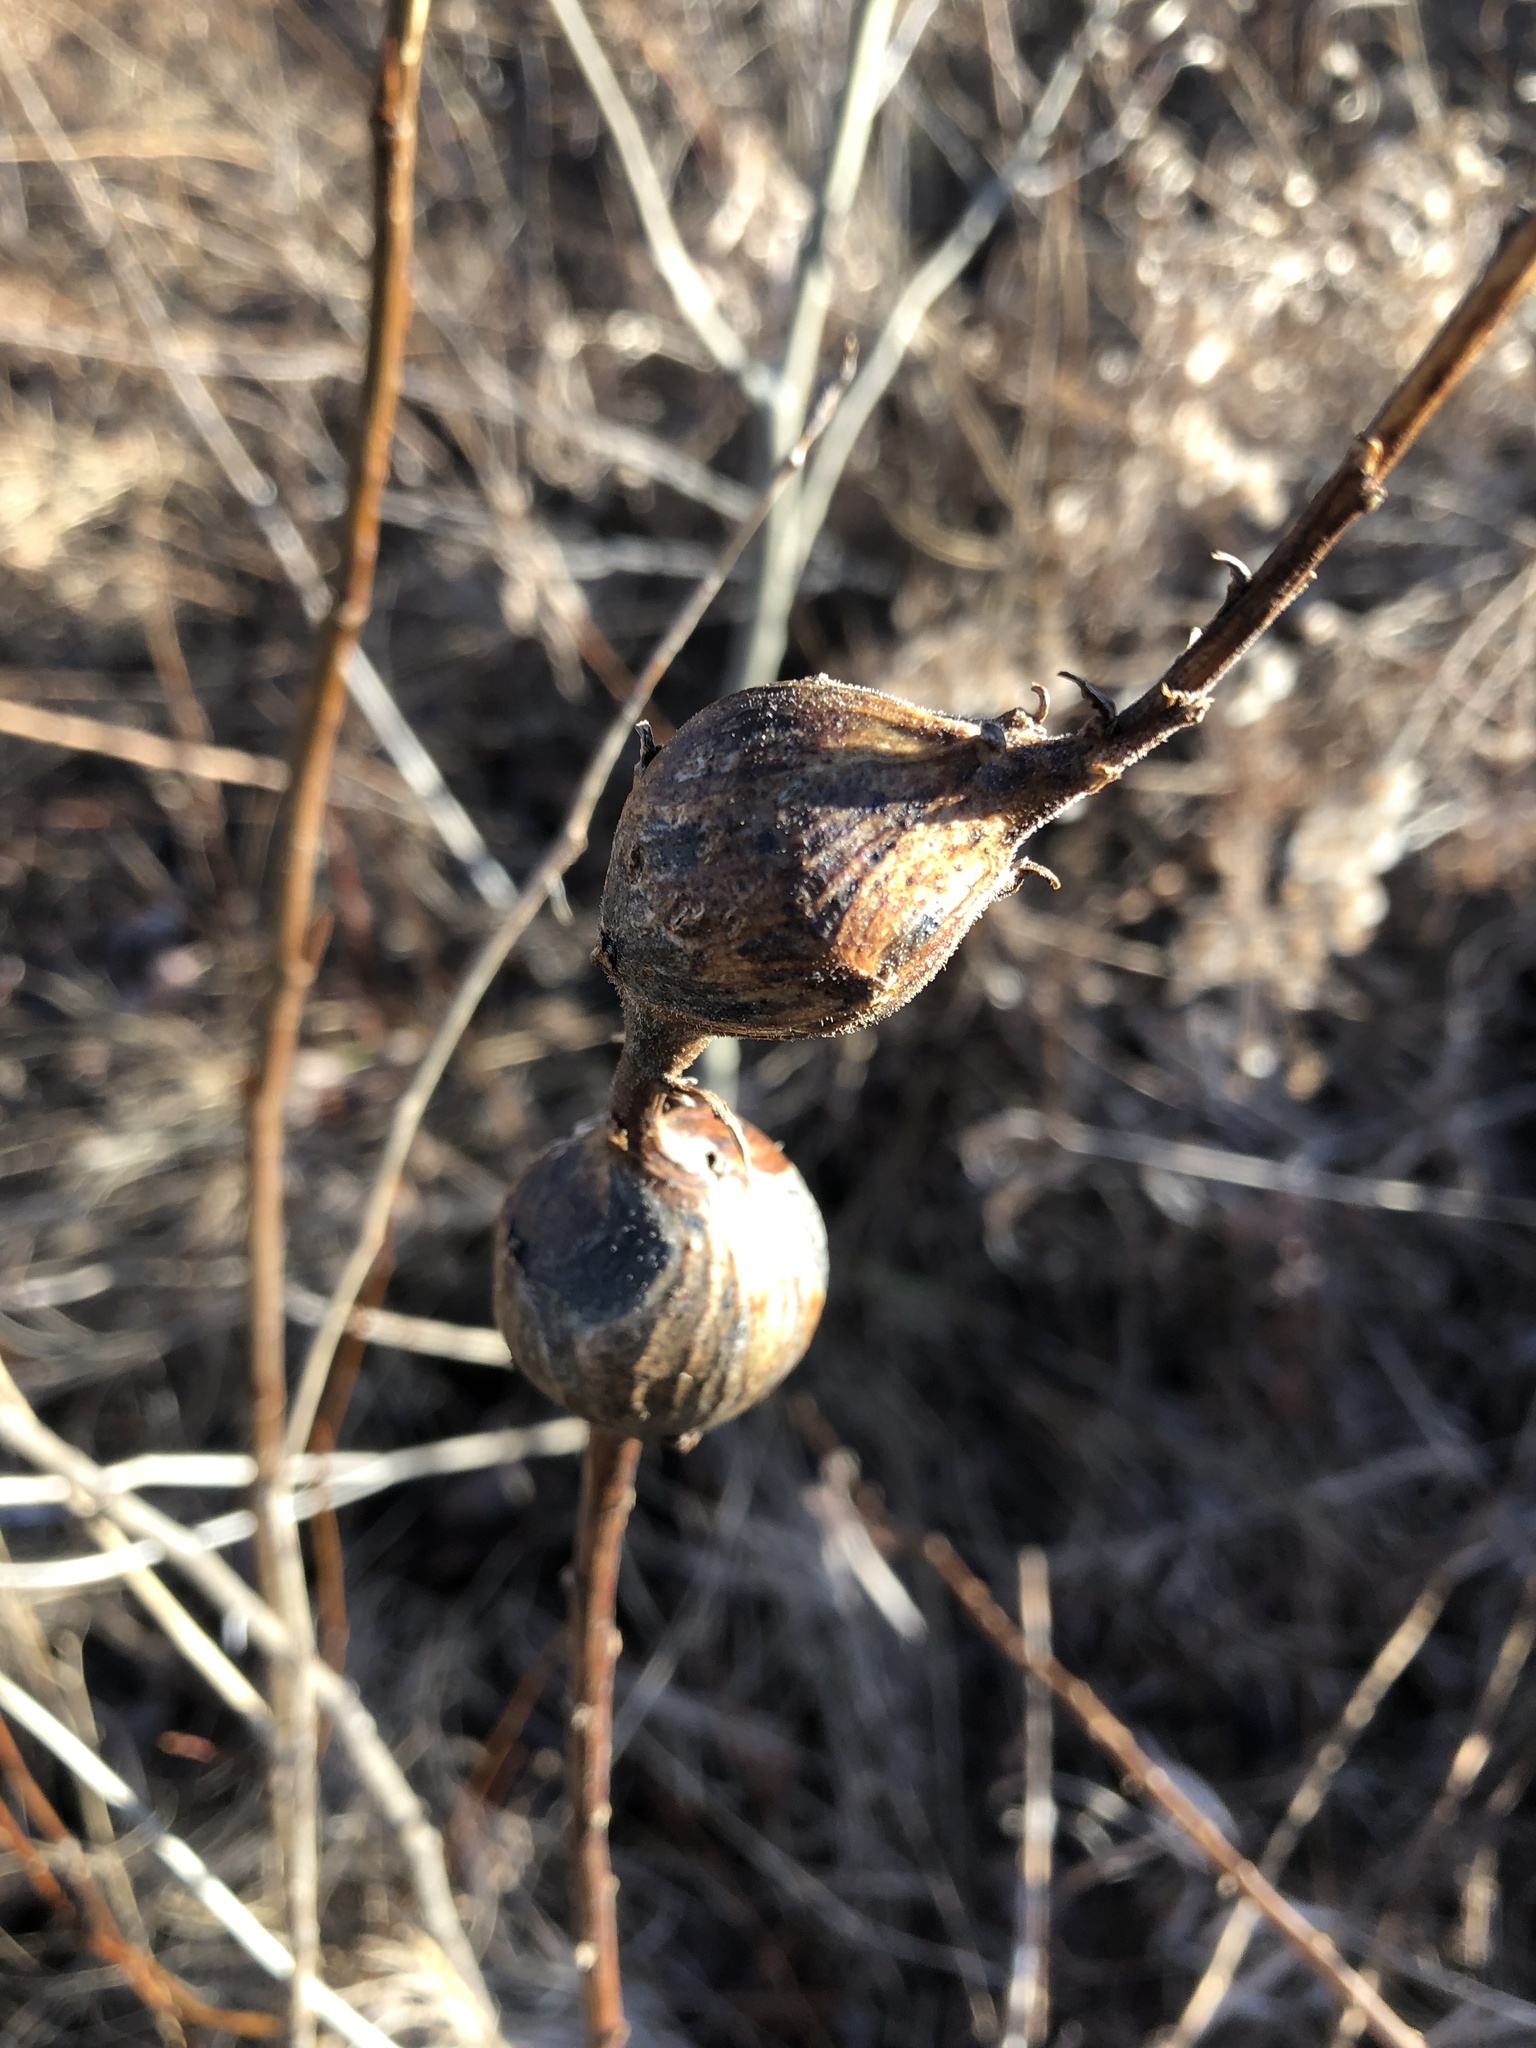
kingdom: Animalia
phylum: Arthropoda
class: Insecta
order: Diptera
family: Tephritidae
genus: Eurosta
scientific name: Eurosta solidaginis
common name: Goldenrod gall fly
